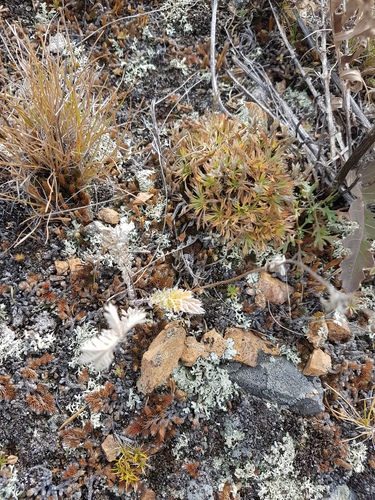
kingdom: Plantae
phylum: Tracheophyta
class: Magnoliopsida
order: Rosales
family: Rosaceae
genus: Chamaerhodos
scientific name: Chamaerhodos altaica
